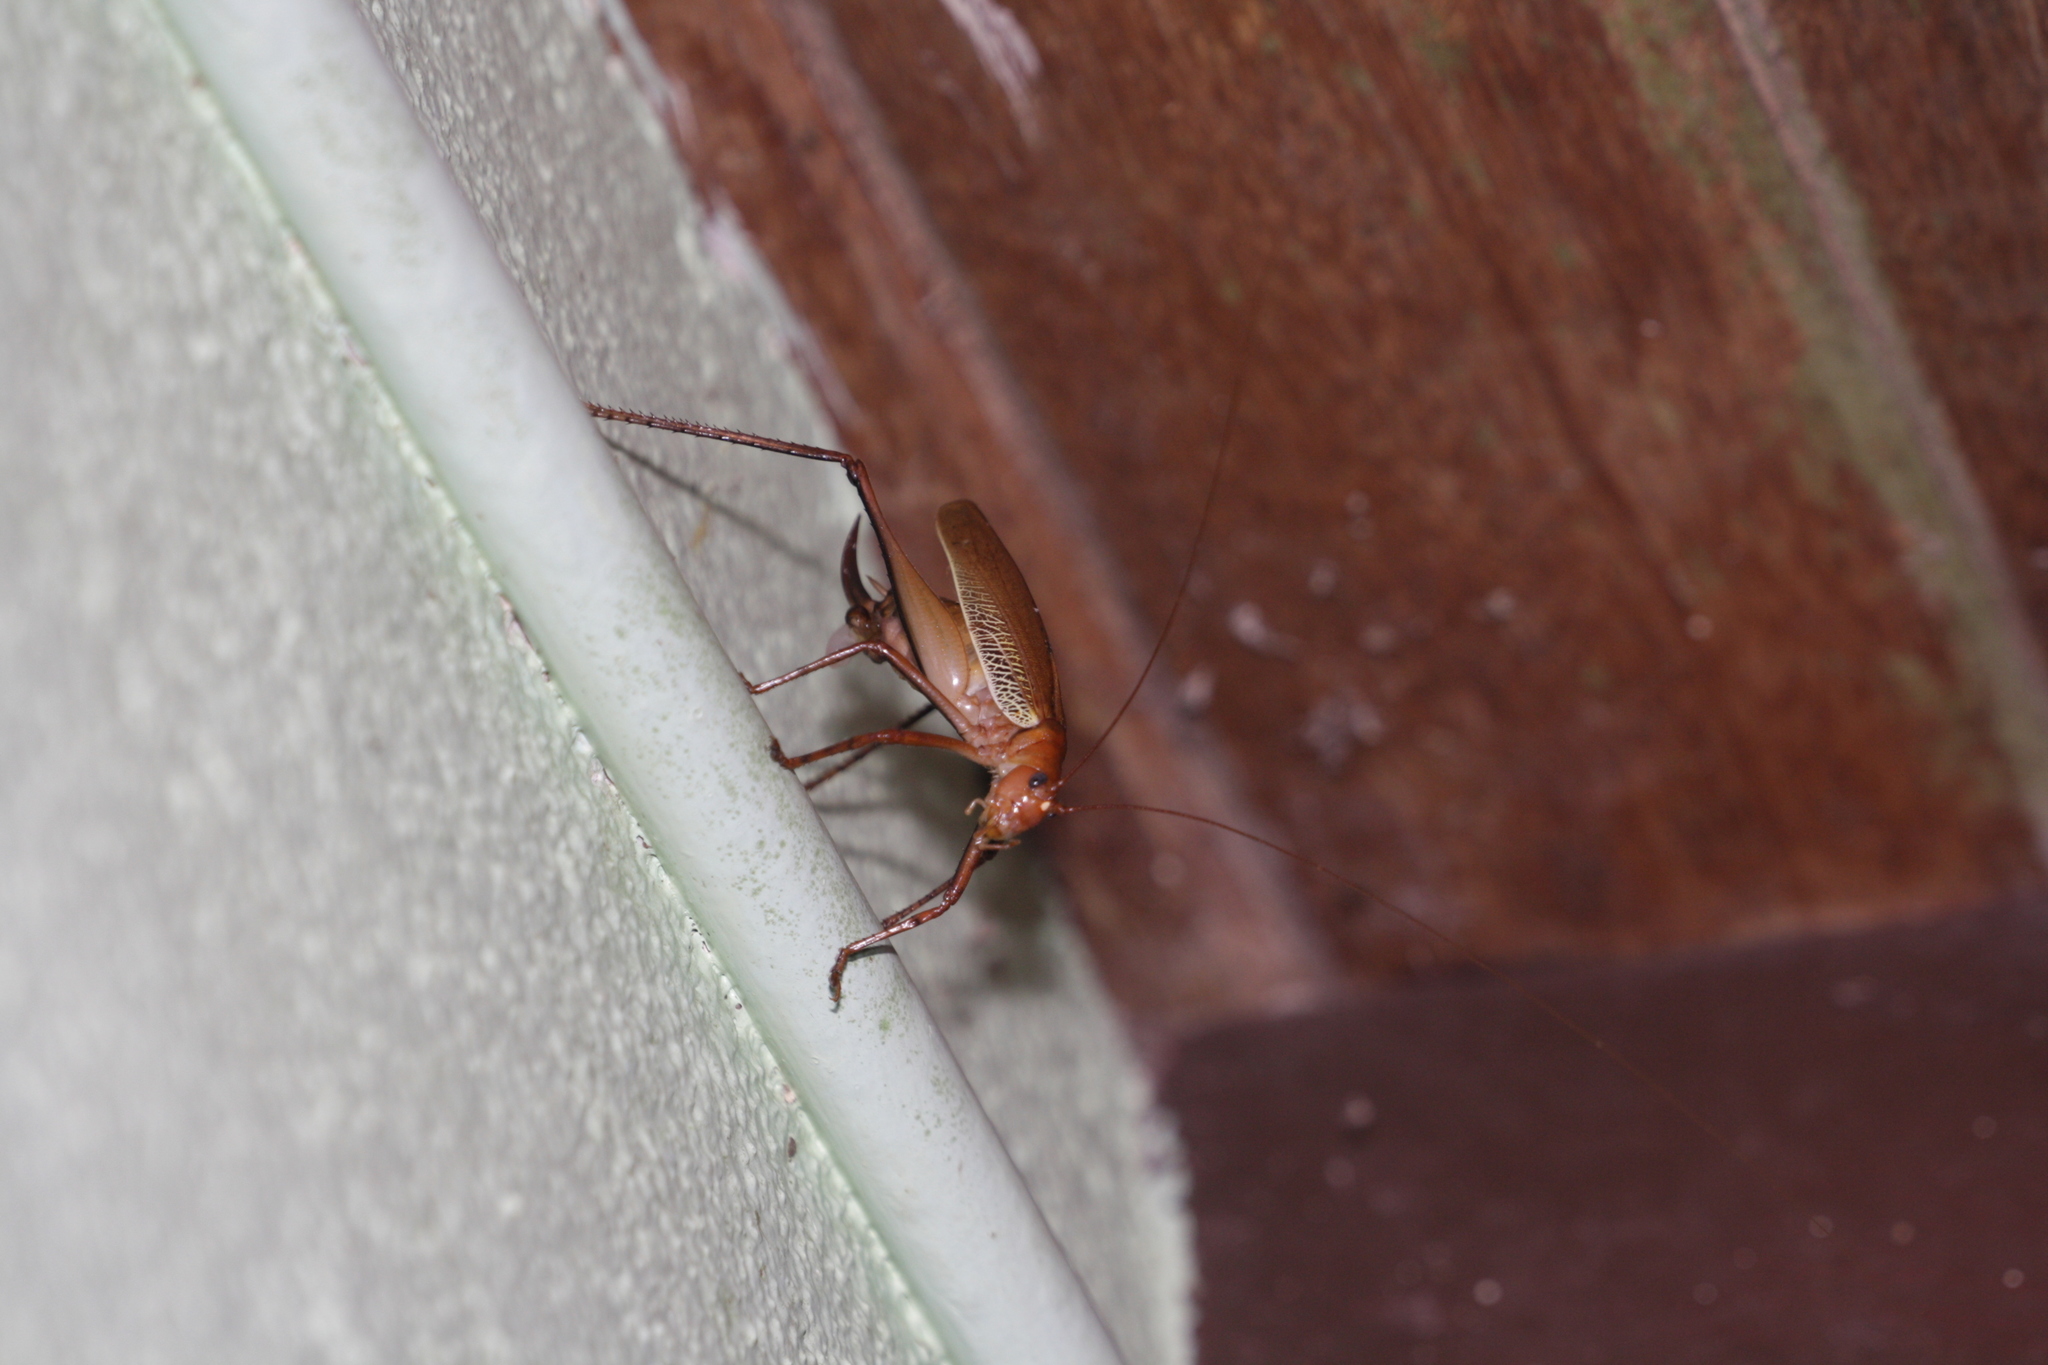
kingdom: Animalia
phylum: Arthropoda
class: Insecta
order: Orthoptera
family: Tettigoniidae
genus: Ischnomela
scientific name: Ischnomela pulchripennis
